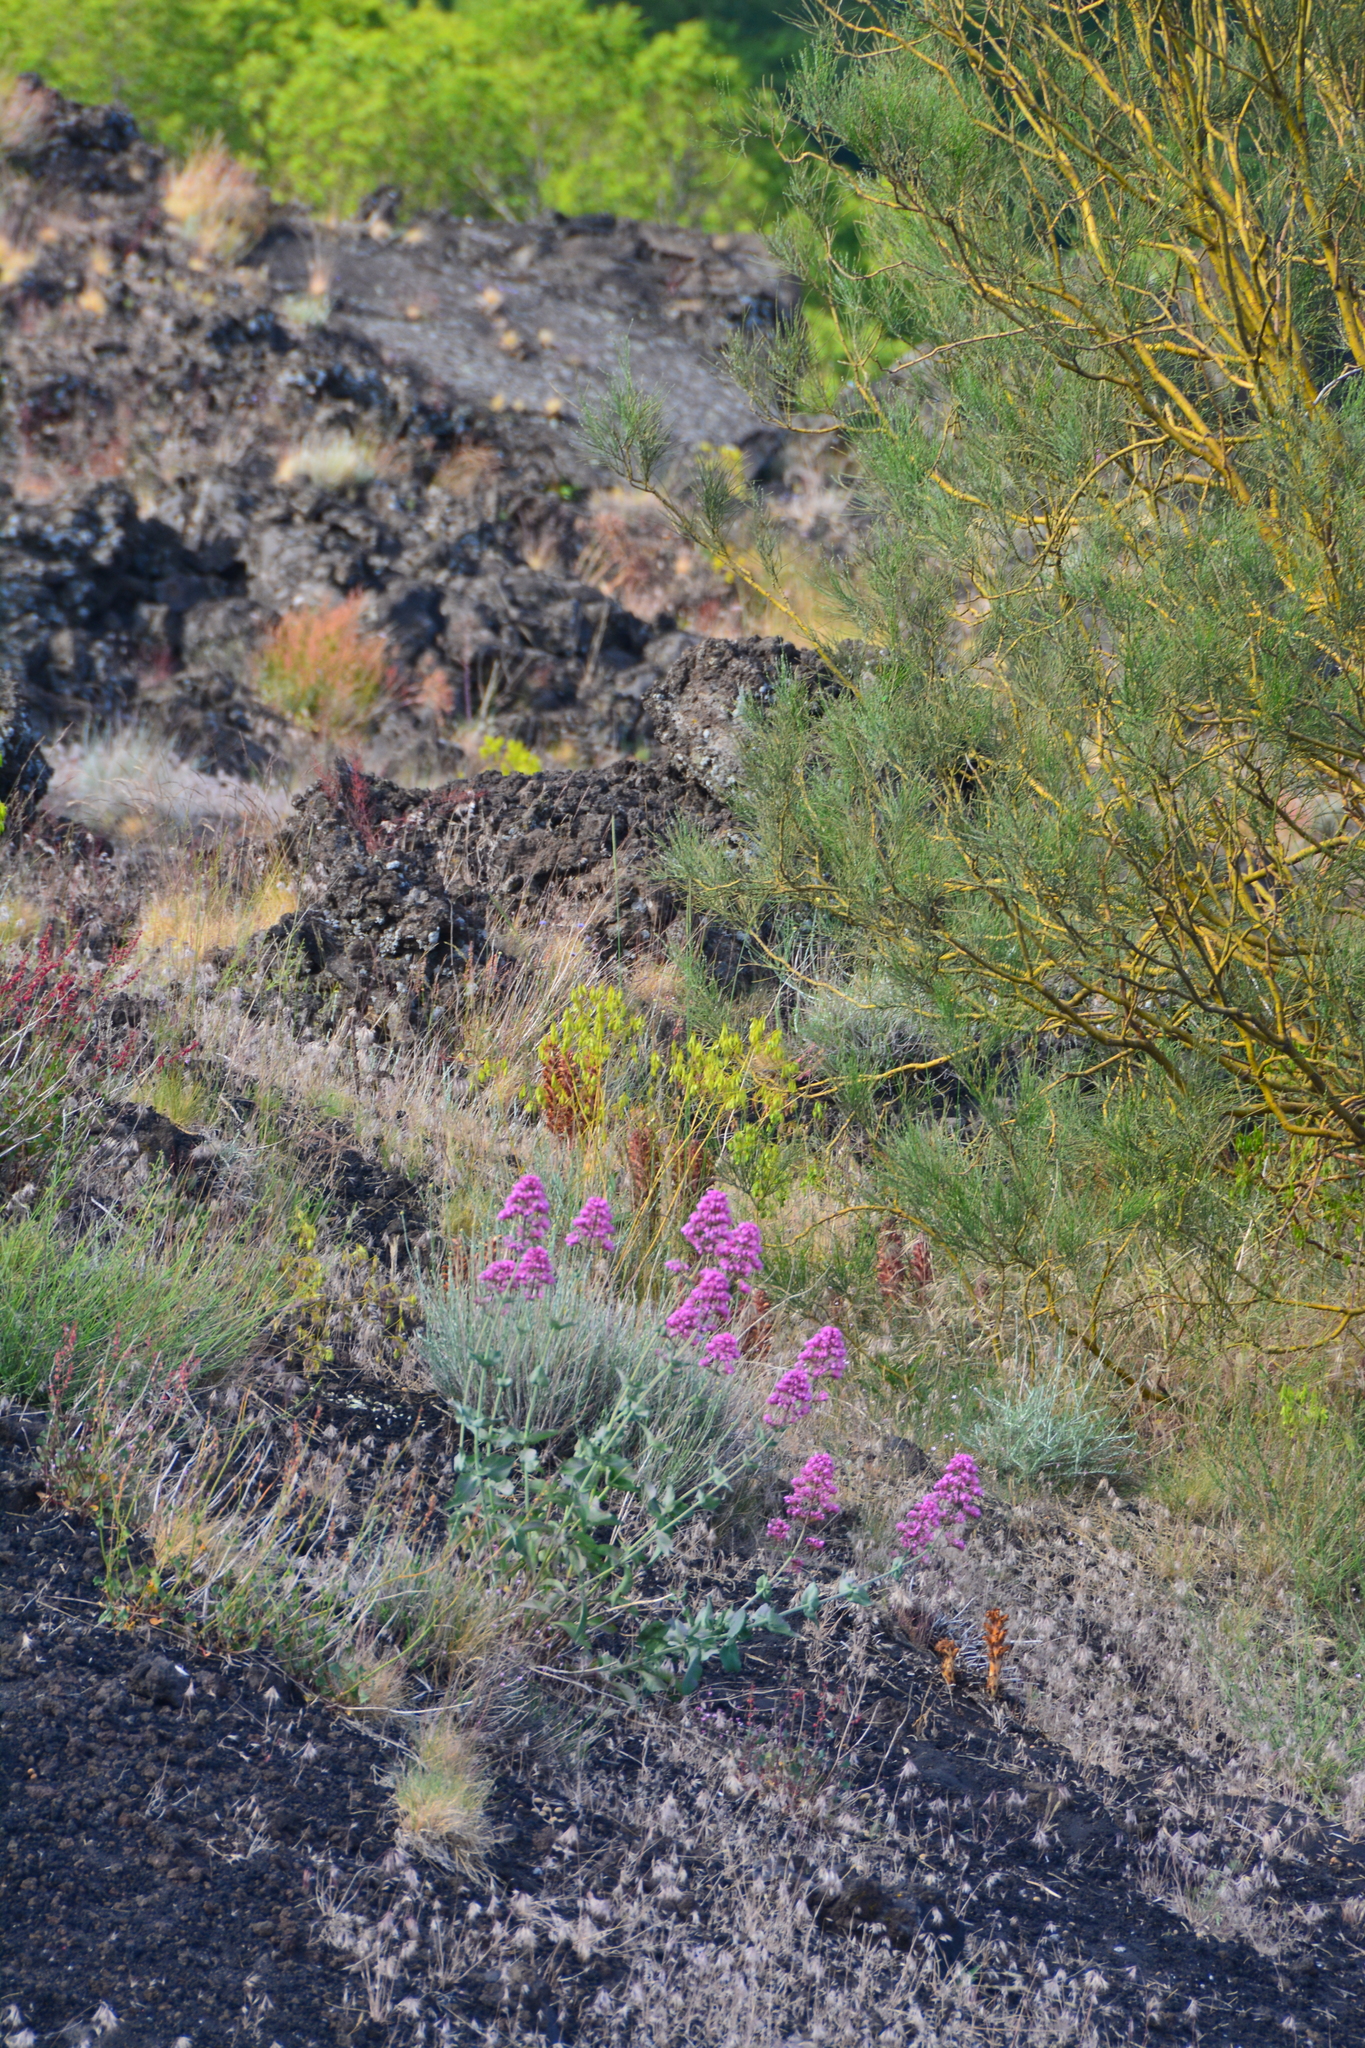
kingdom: Plantae
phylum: Tracheophyta
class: Magnoliopsida
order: Dipsacales
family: Caprifoliaceae
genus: Centranthus
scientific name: Centranthus ruber
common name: Red valerian
